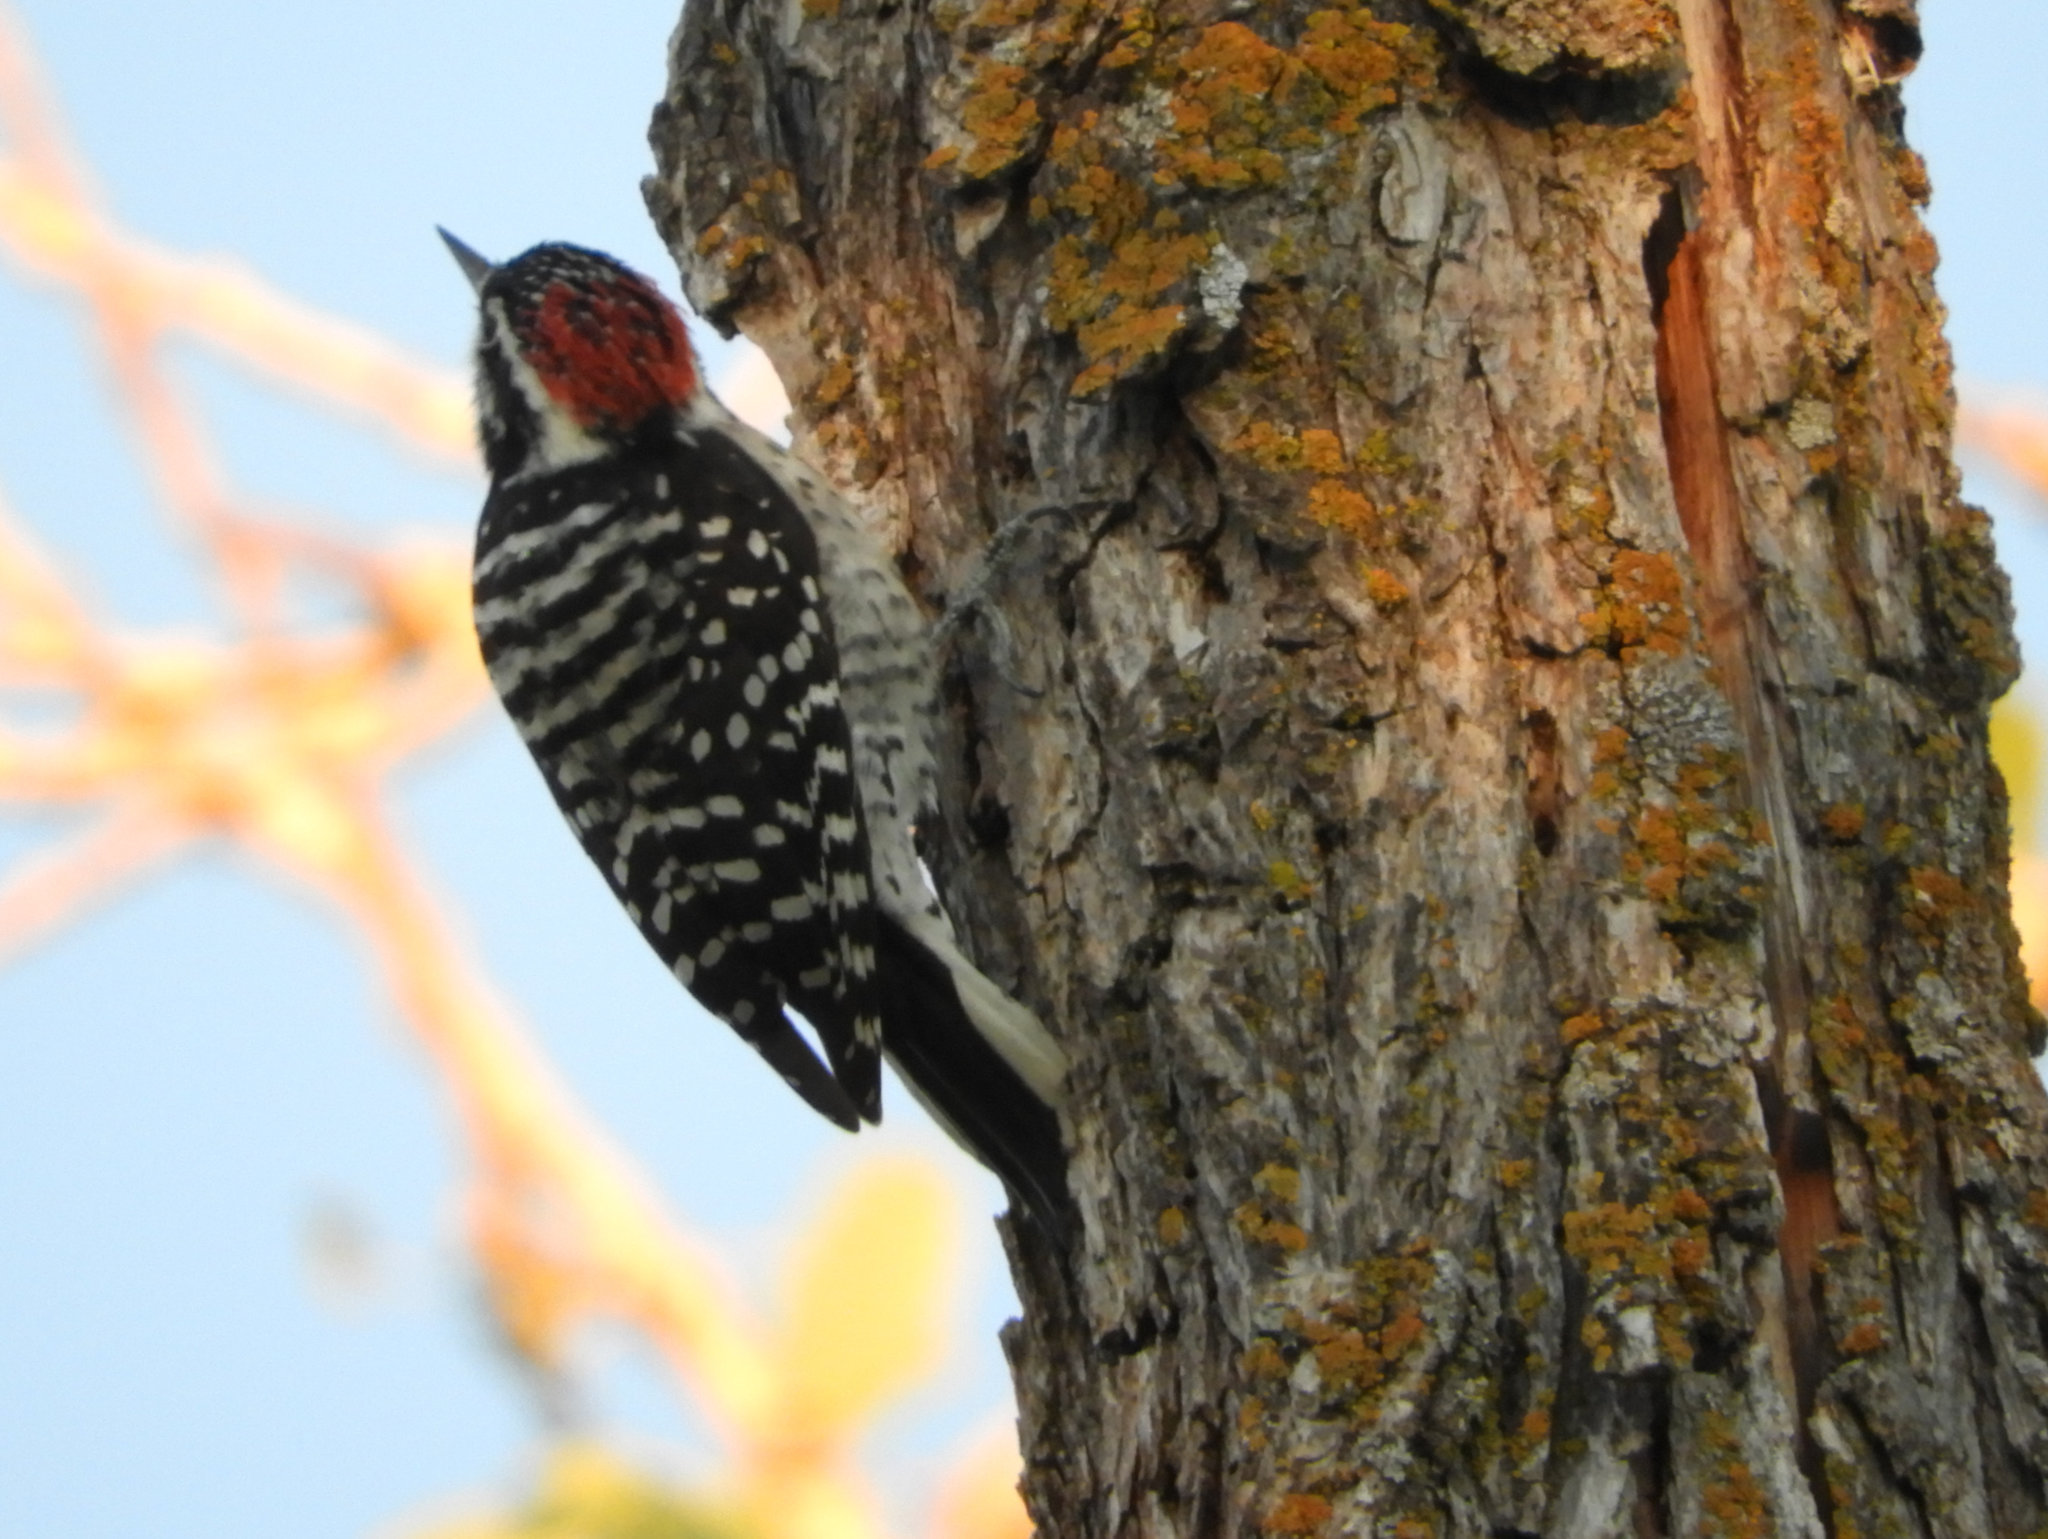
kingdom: Animalia
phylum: Chordata
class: Aves
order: Piciformes
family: Picidae
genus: Dryobates
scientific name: Dryobates nuttallii
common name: Nuttall's woodpecker
